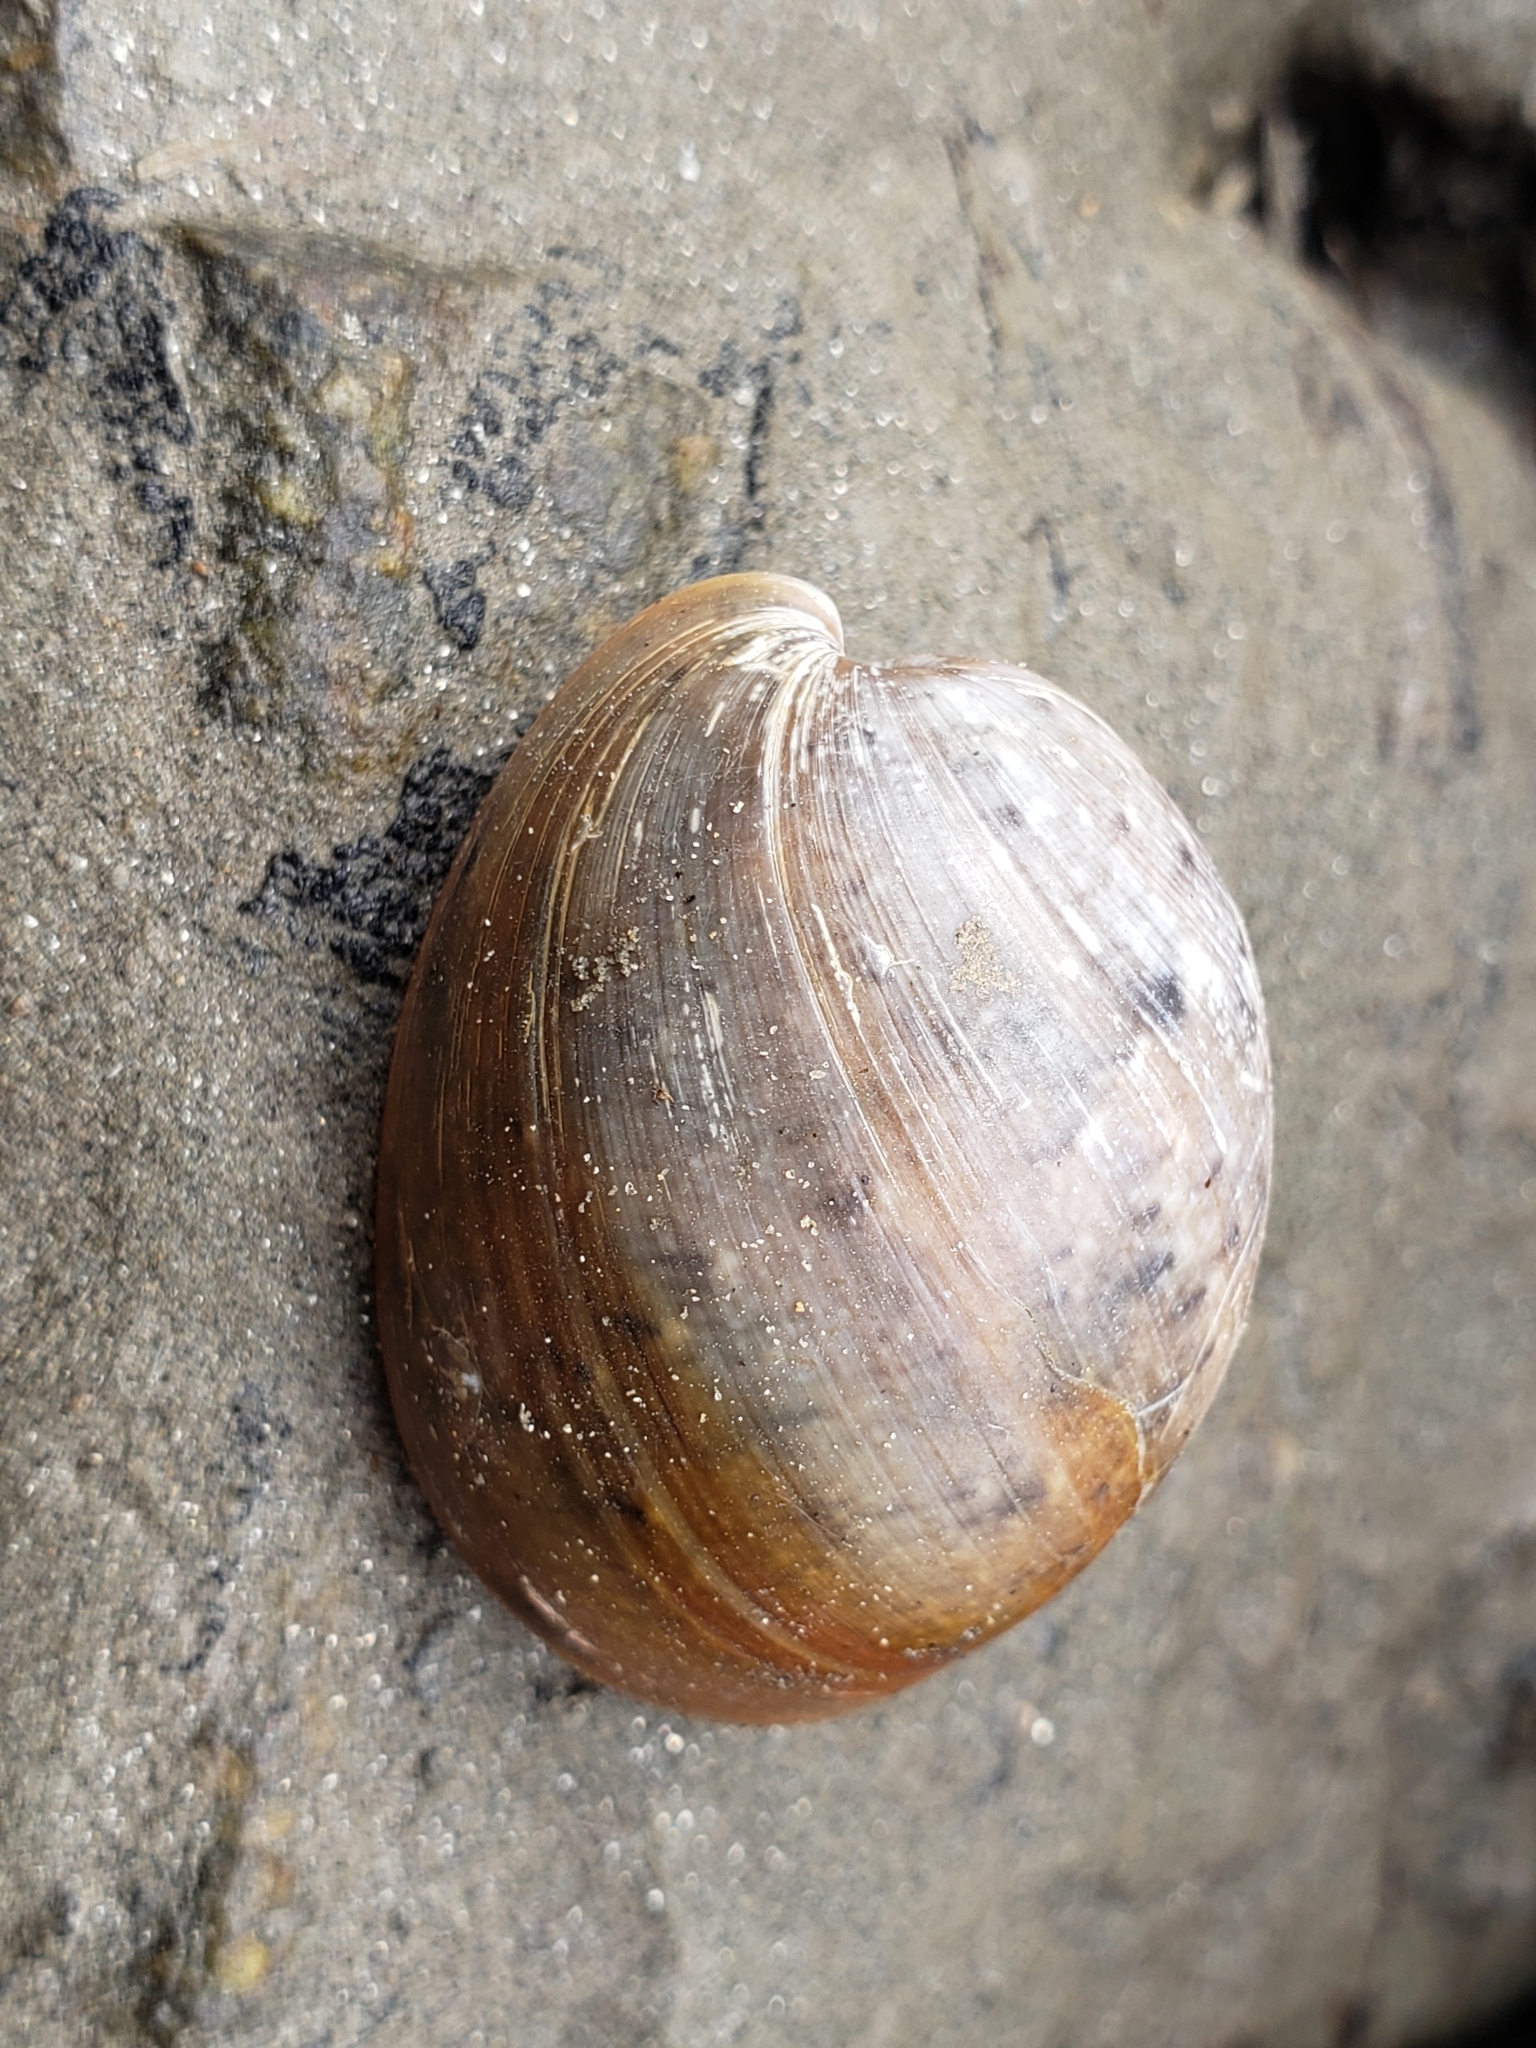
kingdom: Animalia
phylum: Mollusca
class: Gastropoda
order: Cephalaspidea
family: Bullidae
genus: Bulla
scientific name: Bulla gouldiana
